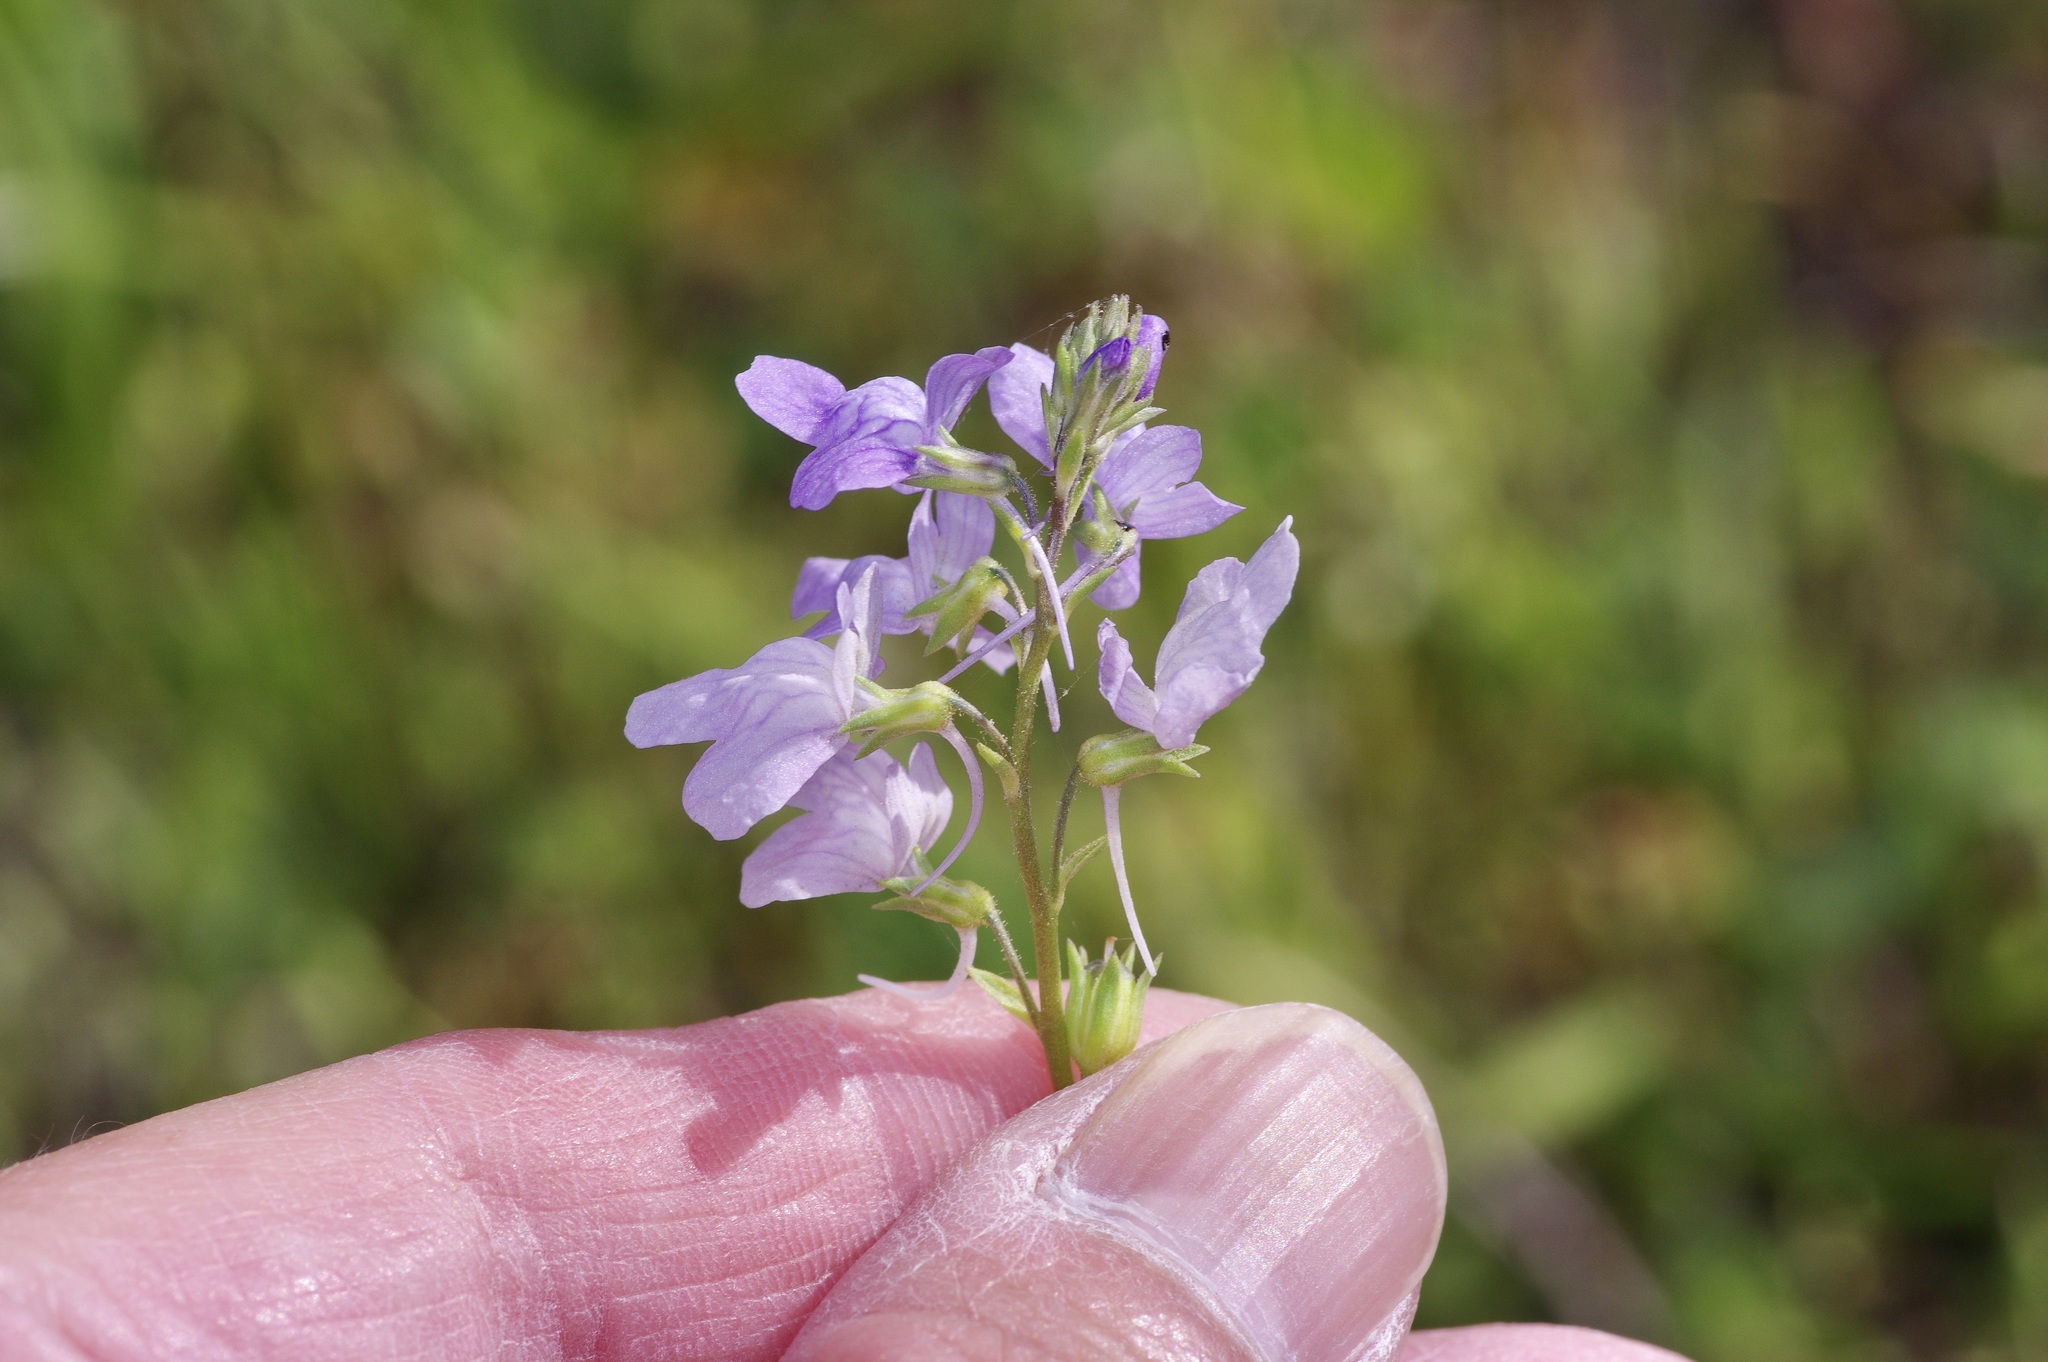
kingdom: Plantae
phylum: Tracheophyta
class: Magnoliopsida
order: Lamiales
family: Plantaginaceae
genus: Nuttallanthus
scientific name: Nuttallanthus texanus
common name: Texas toadflax
